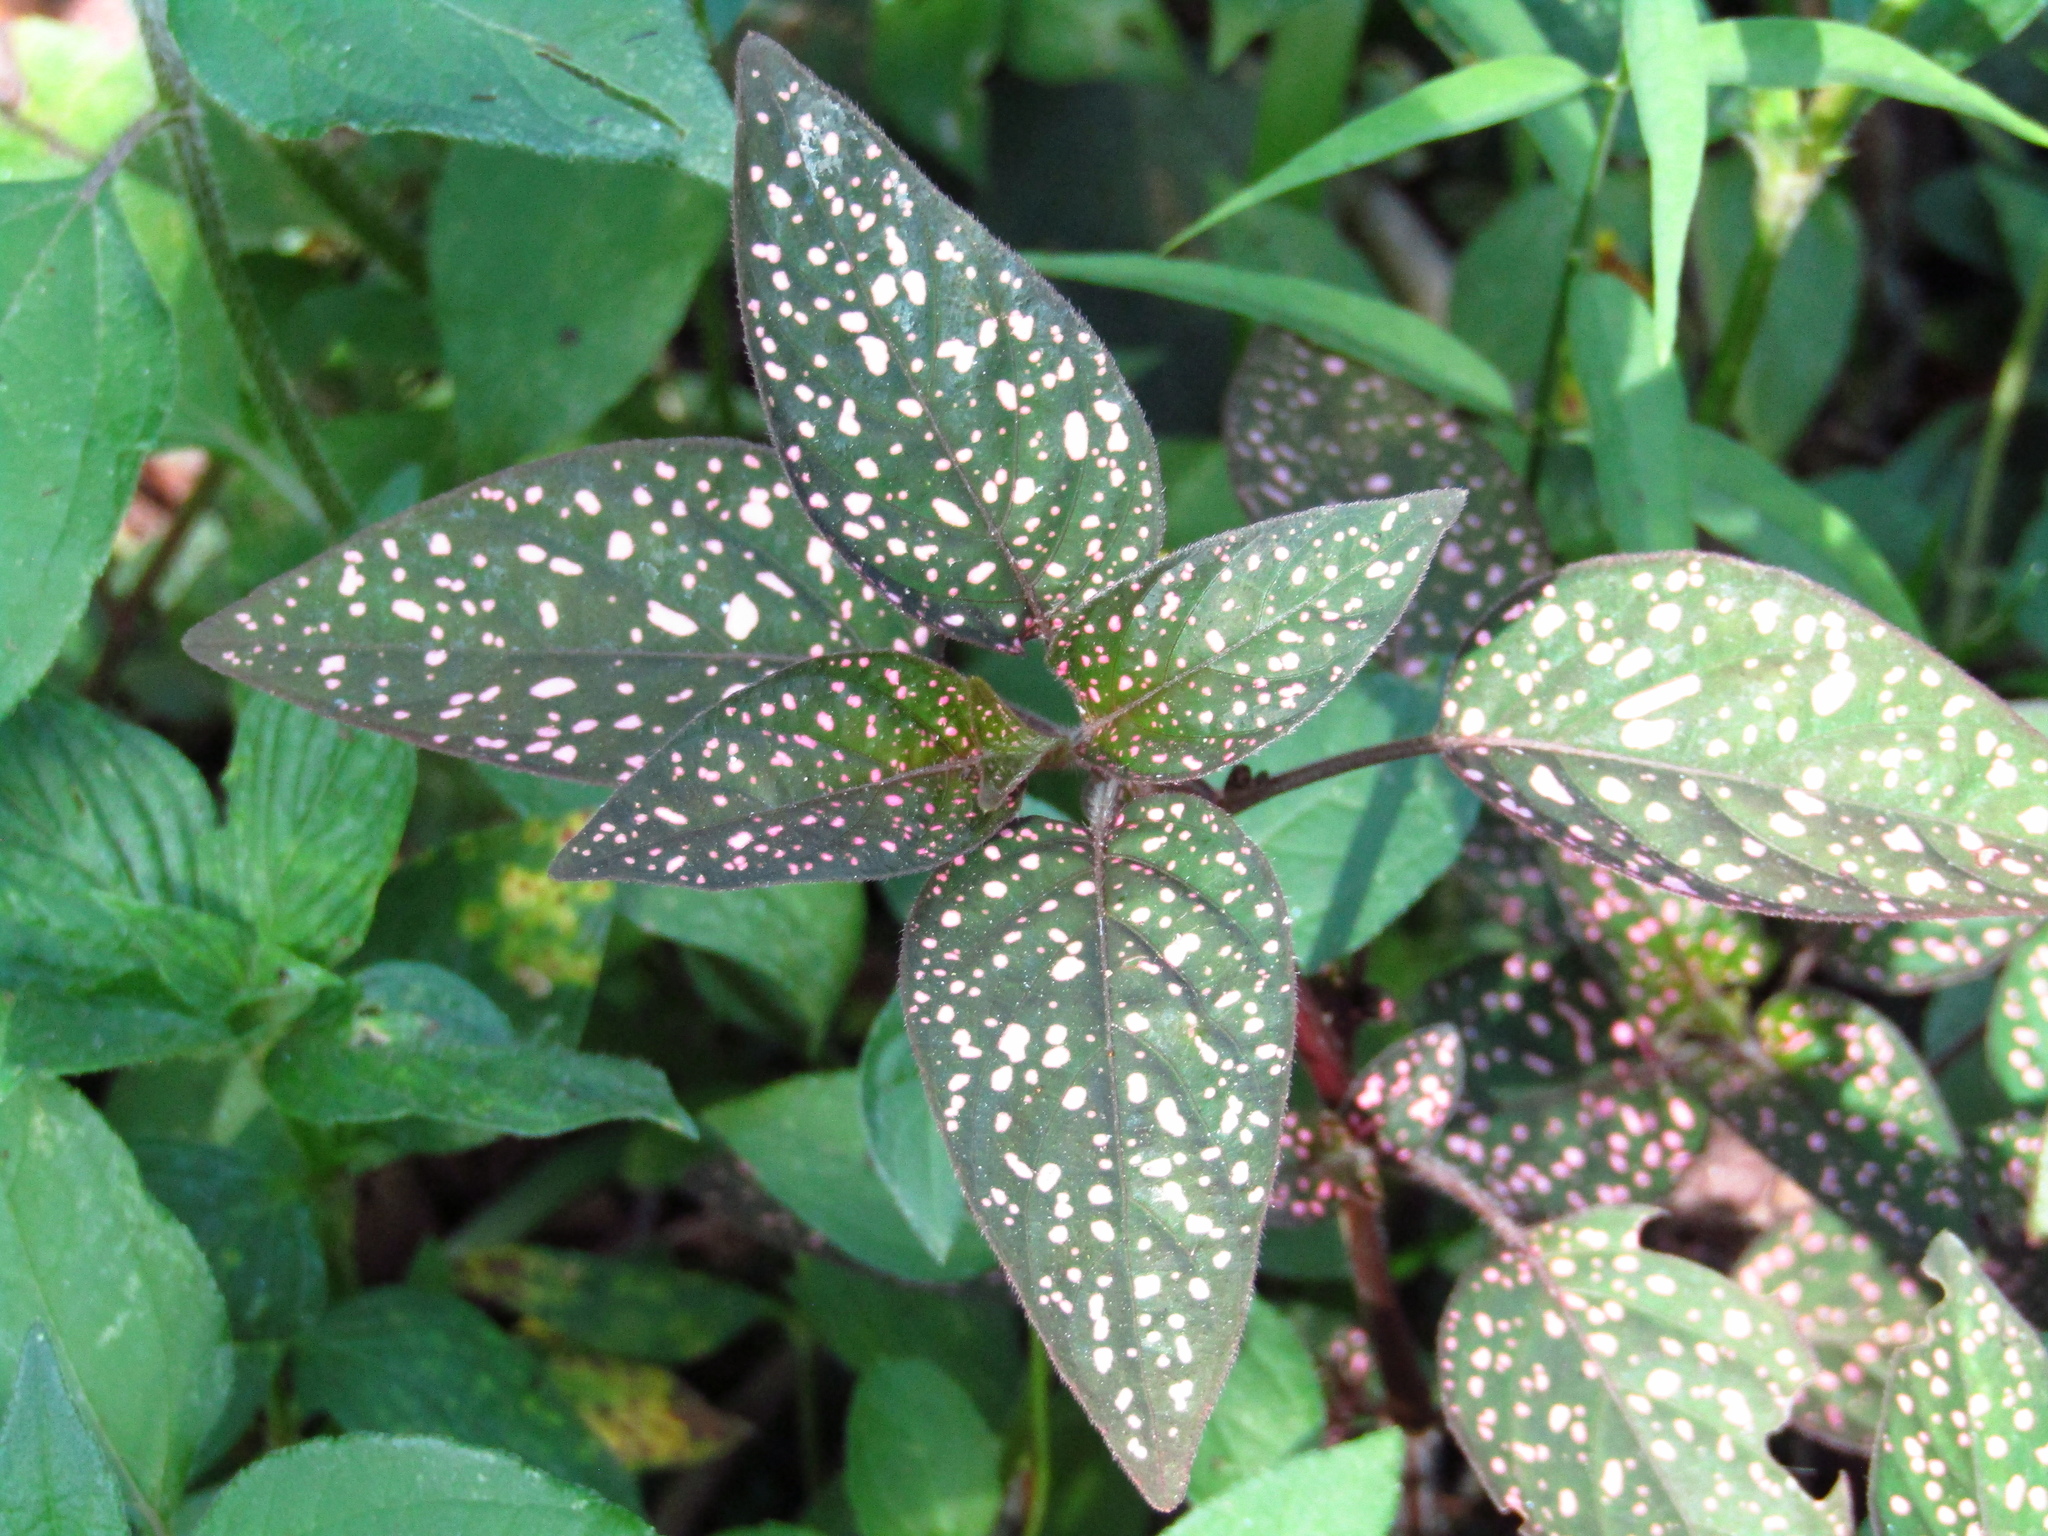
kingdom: Plantae
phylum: Tracheophyta
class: Magnoliopsida
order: Lamiales
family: Acanthaceae
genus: Hypoestes
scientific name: Hypoestes phyllostachya
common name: Polkadot-plant
